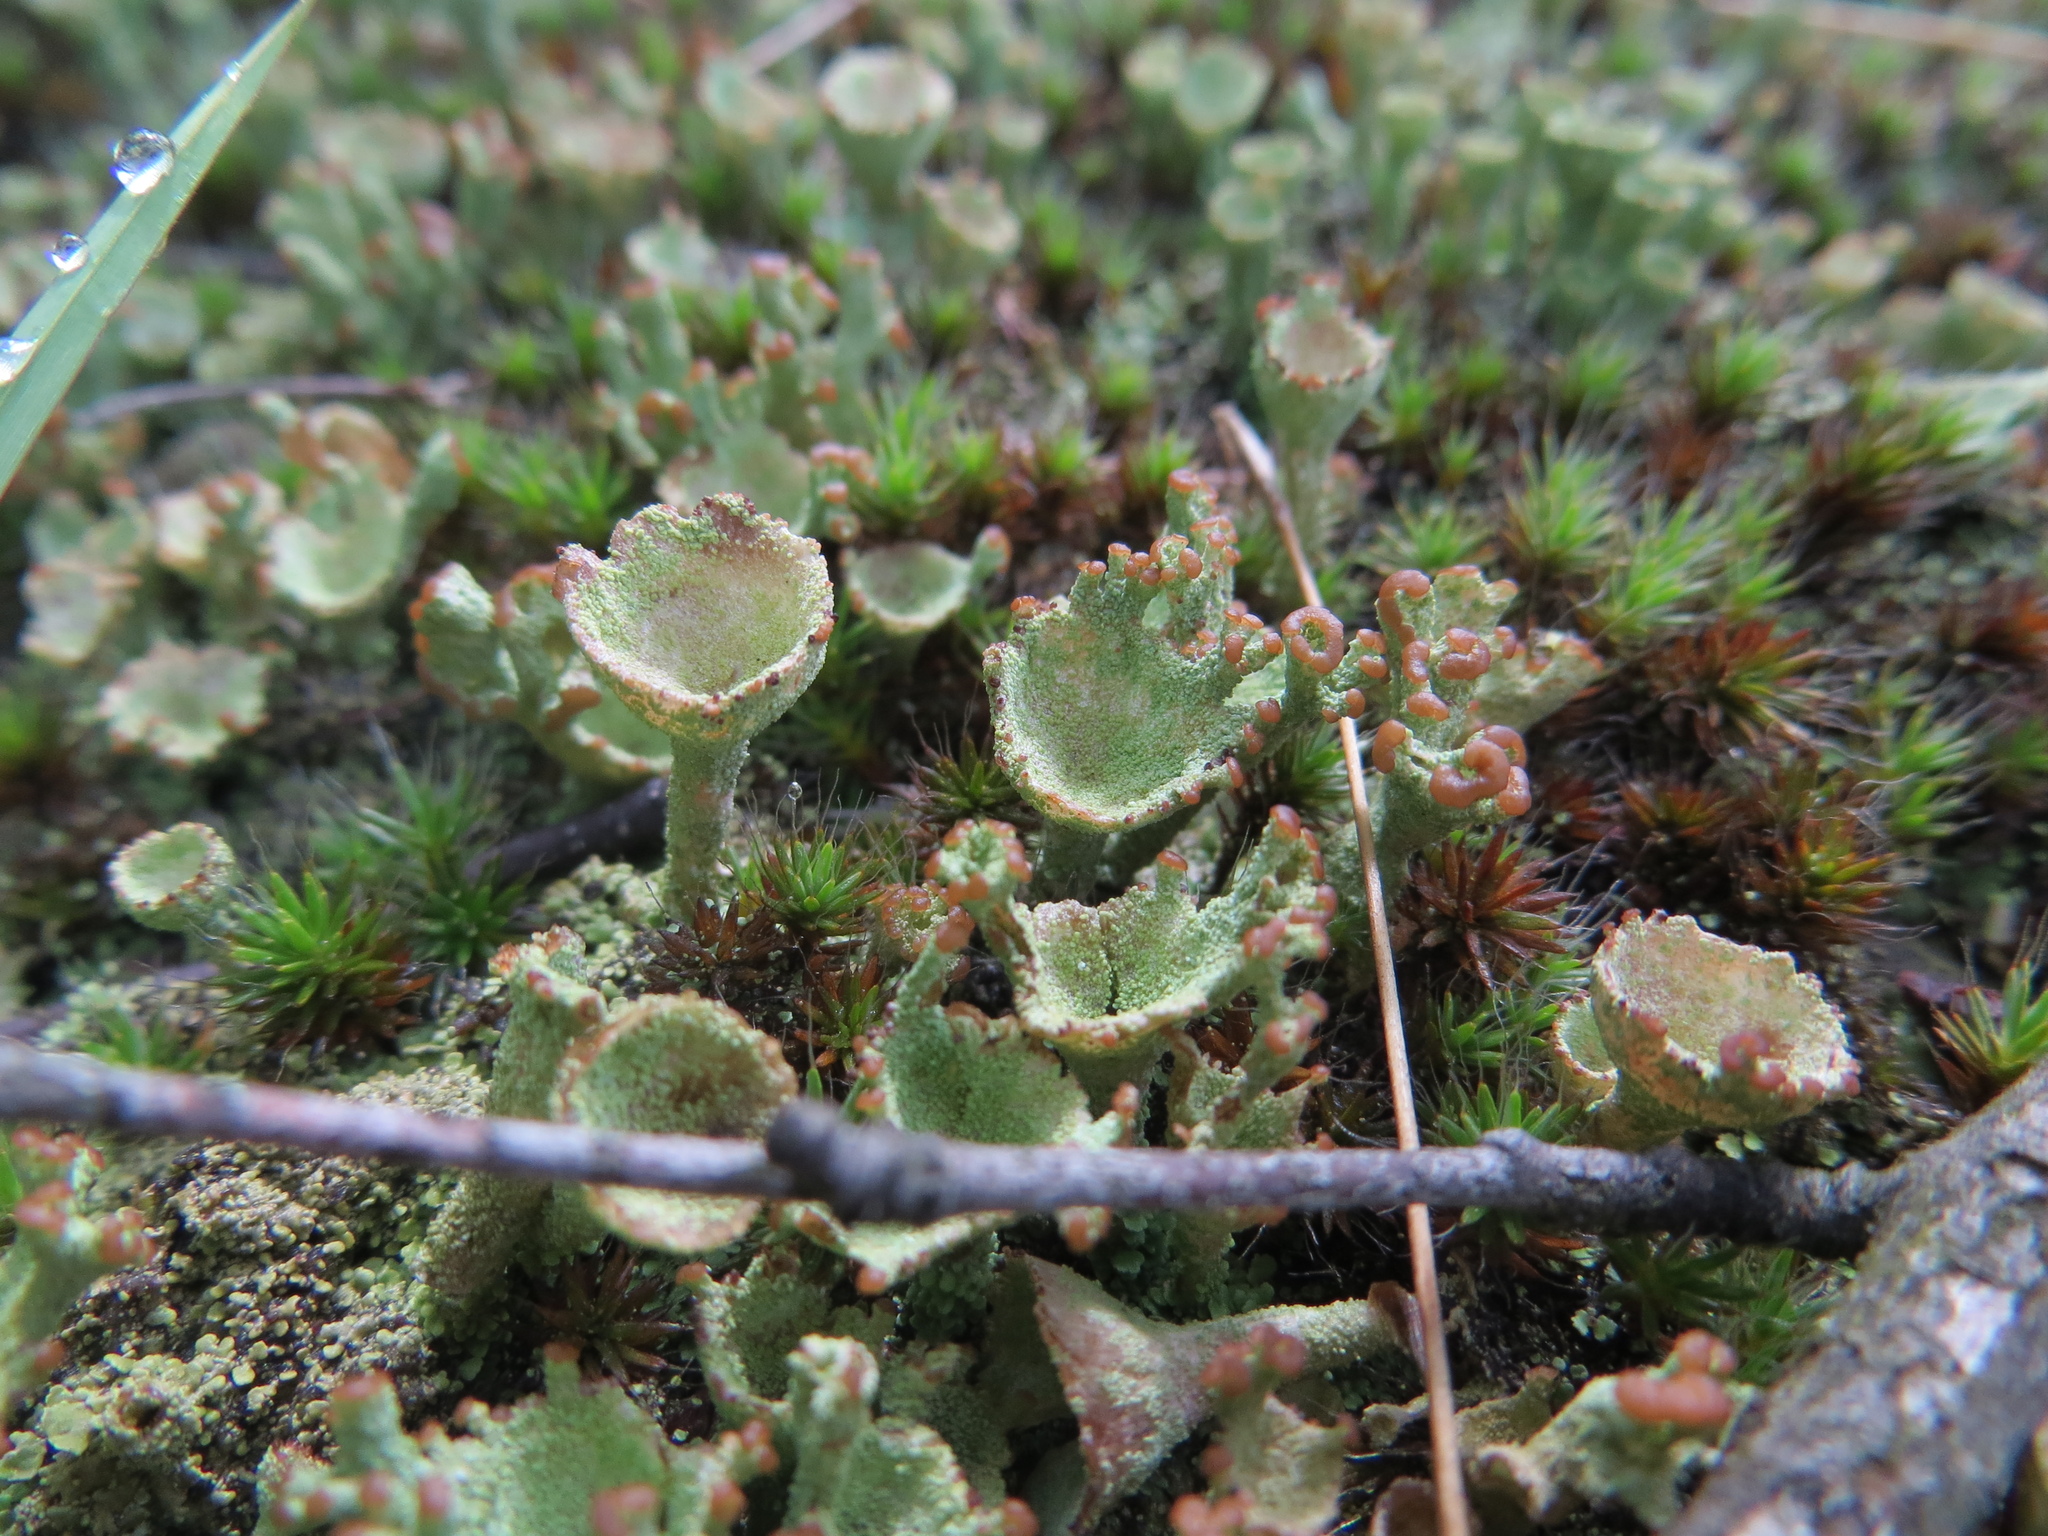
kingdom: Fungi
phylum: Ascomycota
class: Lecanoromycetes
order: Lecanorales
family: Cladoniaceae
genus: Cladonia
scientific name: Cladonia
